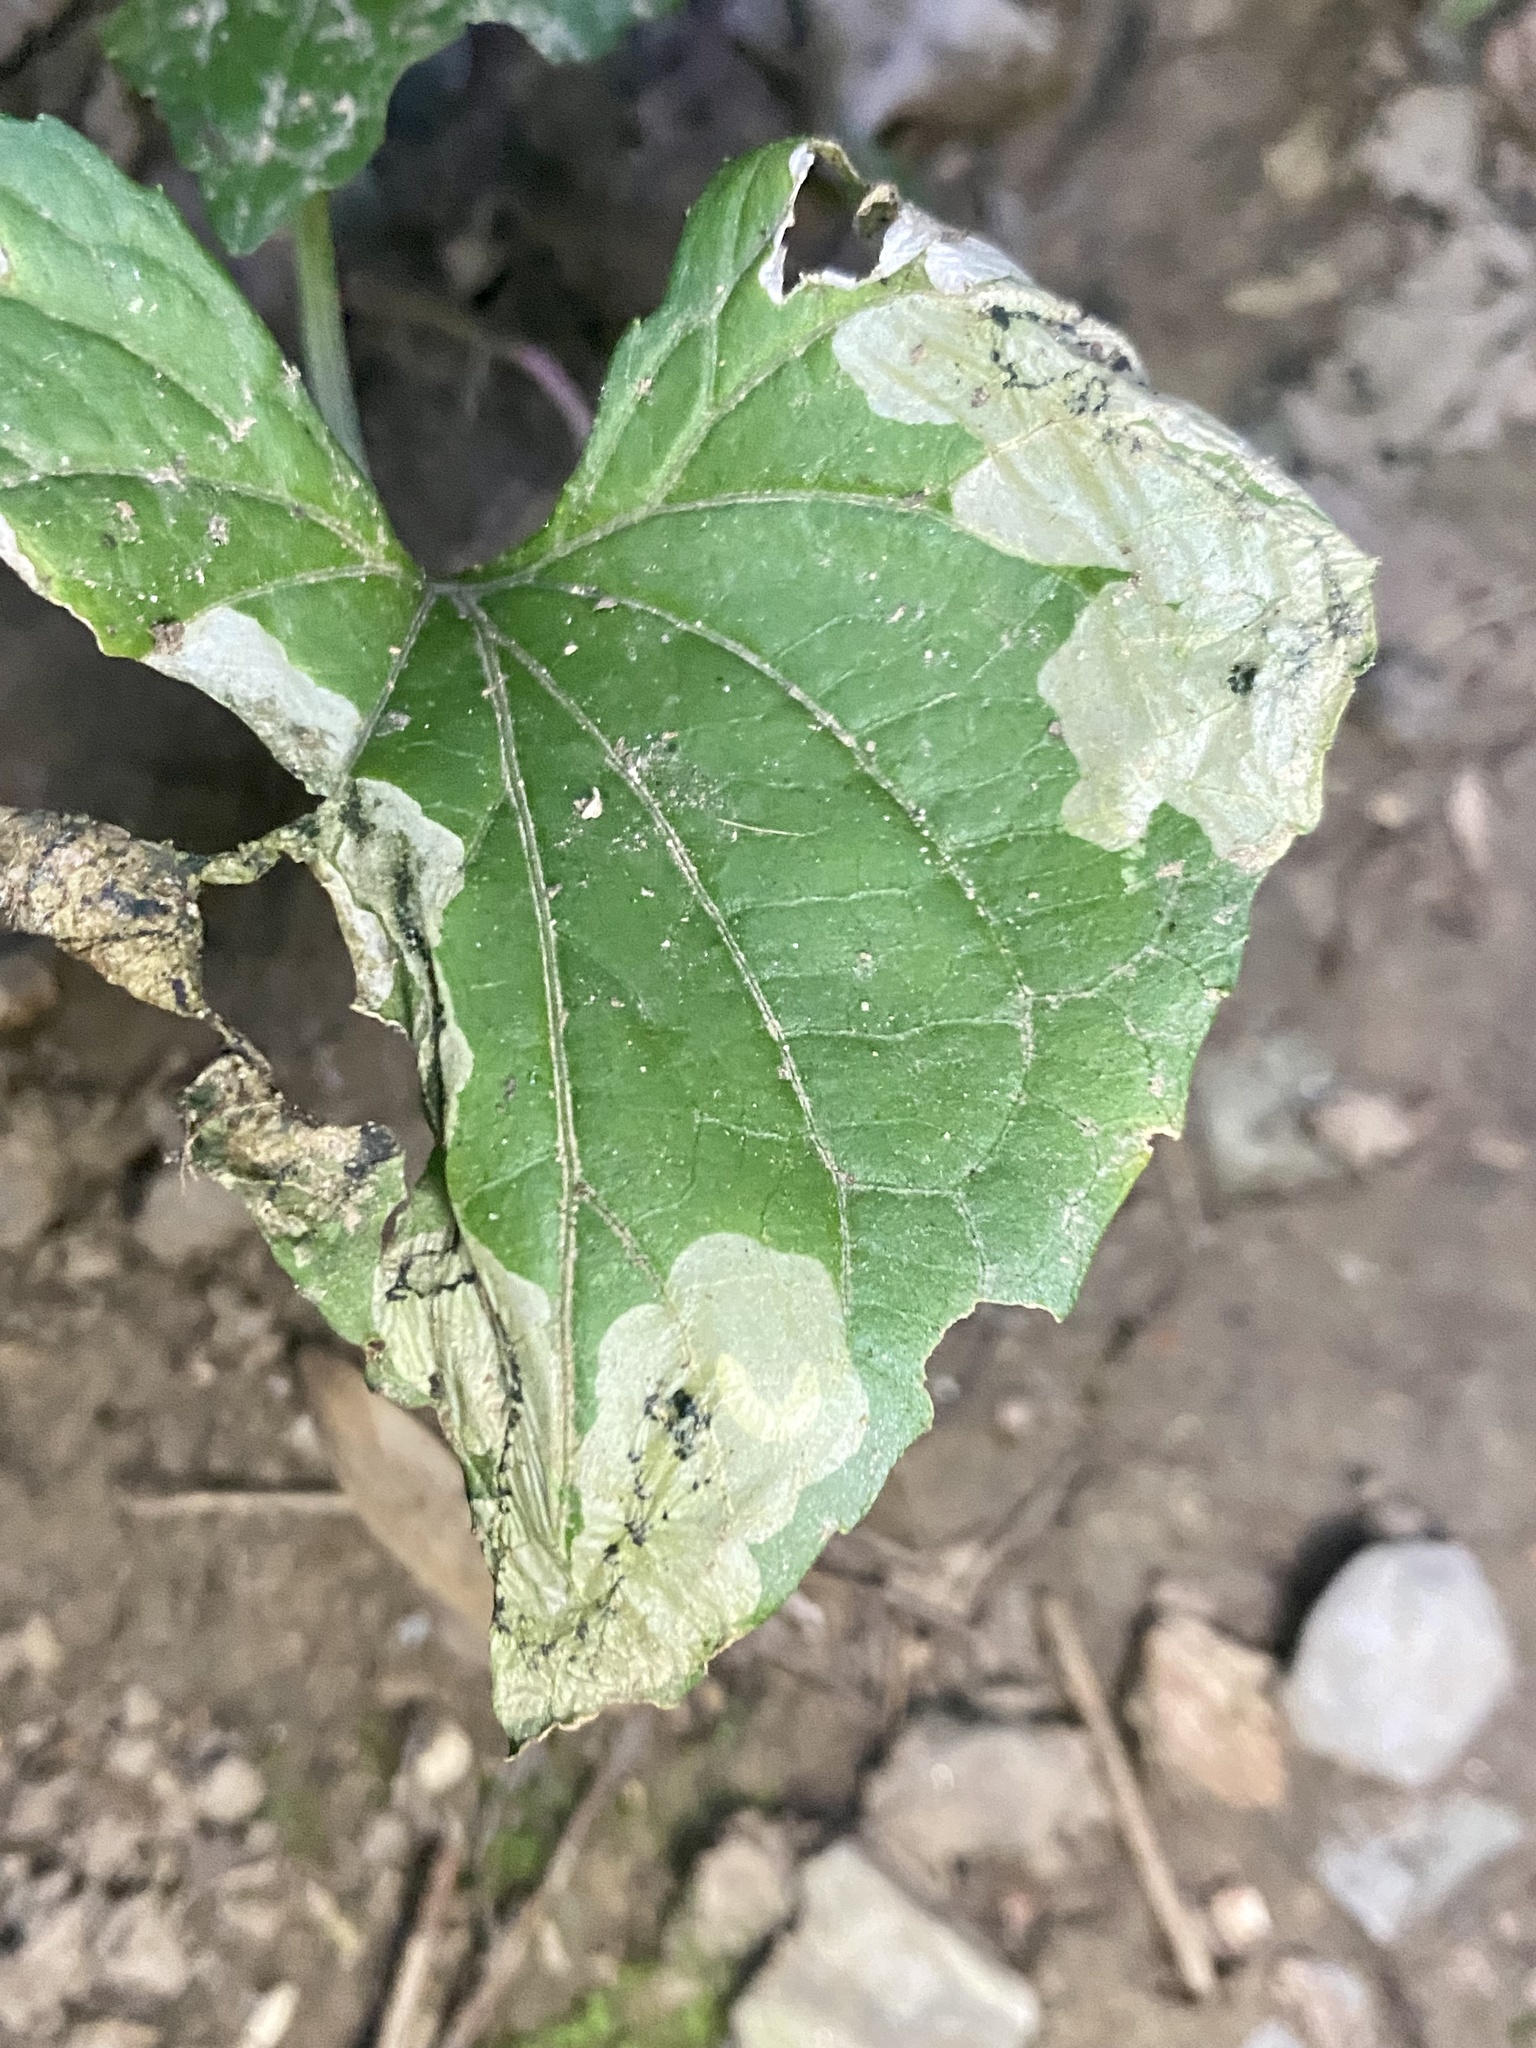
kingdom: Animalia
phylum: Arthropoda
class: Insecta
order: Hymenoptera
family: Tenthredinidae
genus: Nefusa
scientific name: Nefusa ambigua
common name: Violet leafmining sawfly
